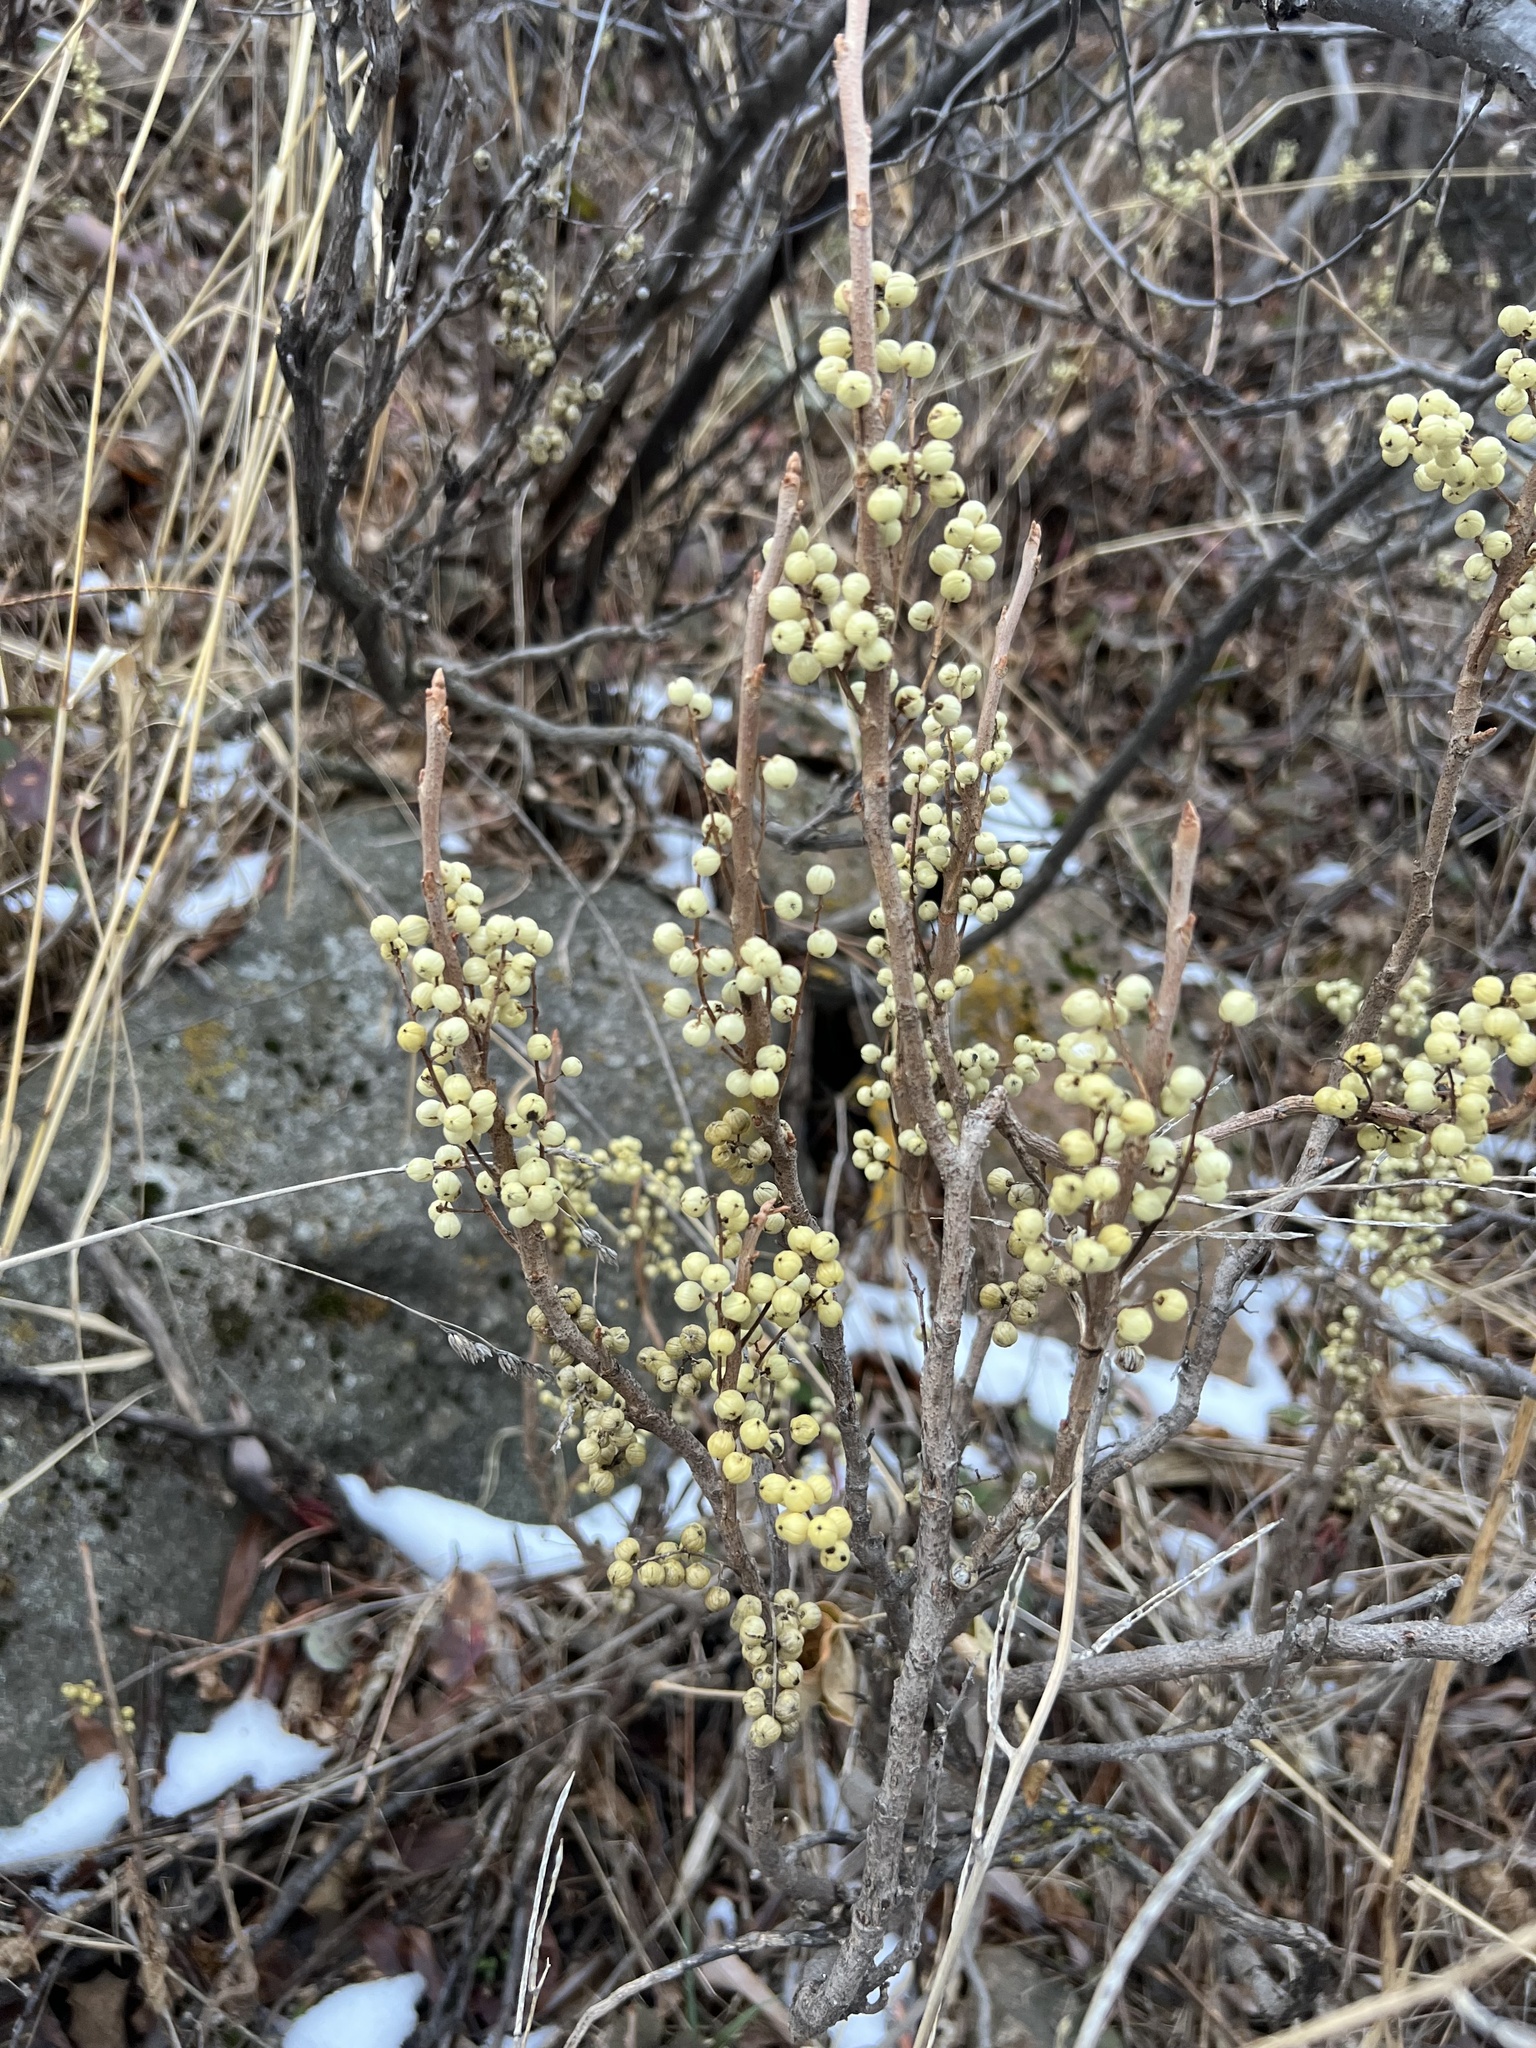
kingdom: Plantae
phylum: Tracheophyta
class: Magnoliopsida
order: Sapindales
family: Anacardiaceae
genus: Toxicodendron
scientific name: Toxicodendron rydbergii
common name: Rydberg's poison-ivy
